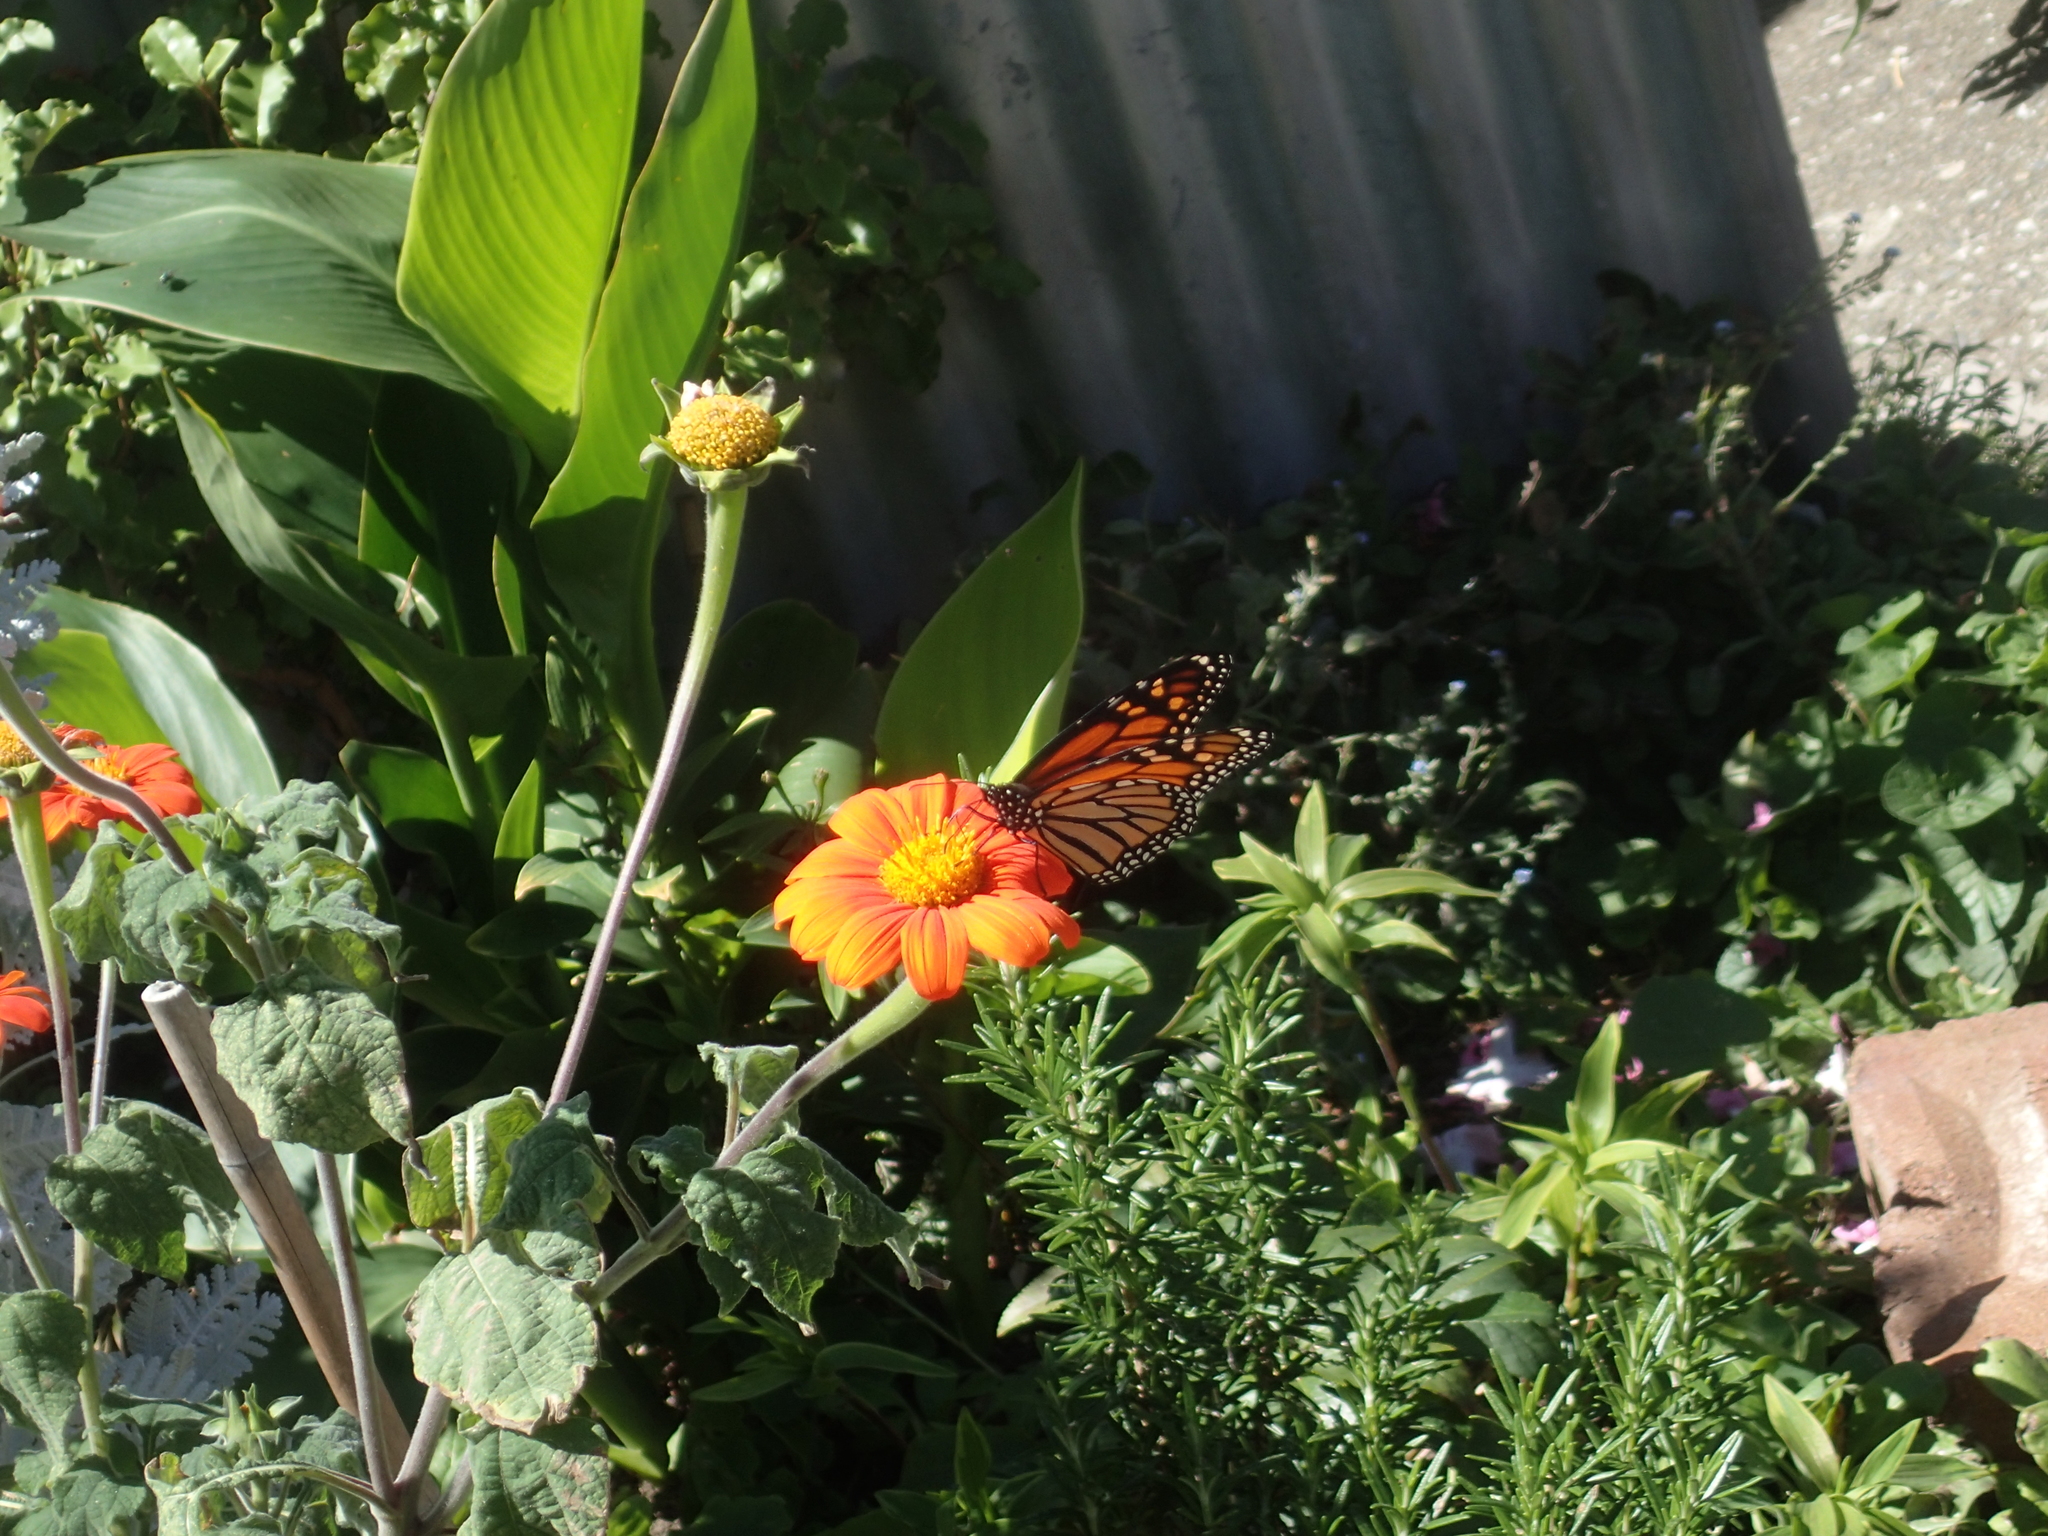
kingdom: Animalia
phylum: Arthropoda
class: Insecta
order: Lepidoptera
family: Nymphalidae
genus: Danaus
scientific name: Danaus plexippus
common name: Monarch
